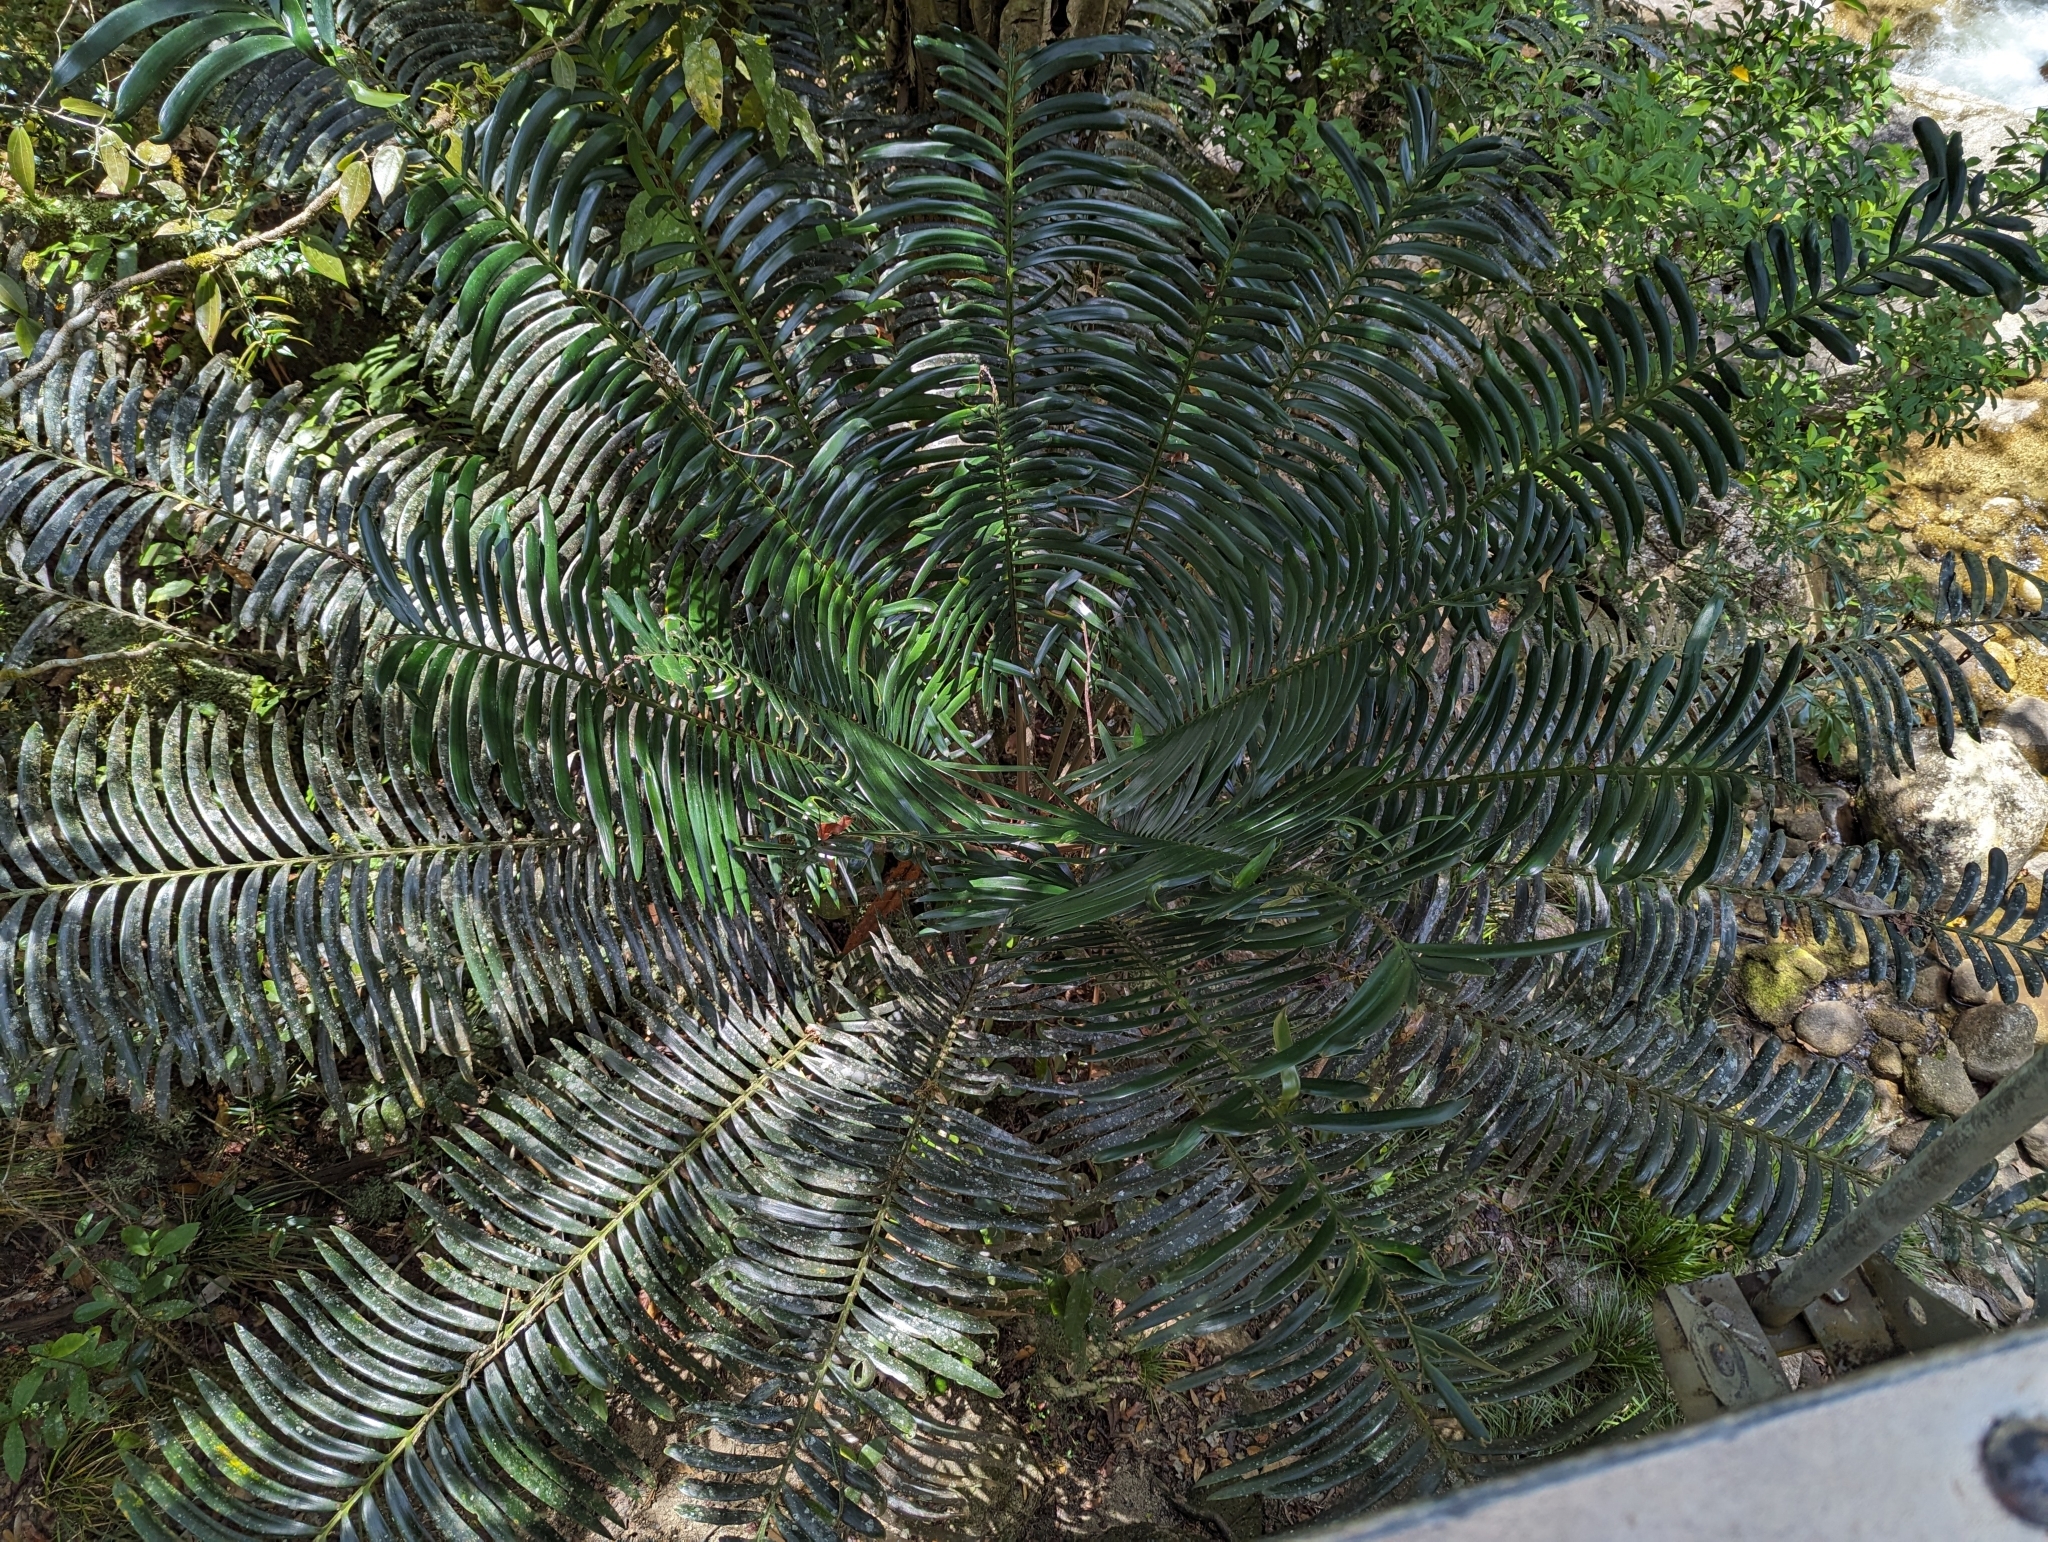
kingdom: Plantae
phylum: Tracheophyta
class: Cycadopsida
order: Cycadales
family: Zamiaceae
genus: Lepidozamia
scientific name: Lepidozamia hopei
